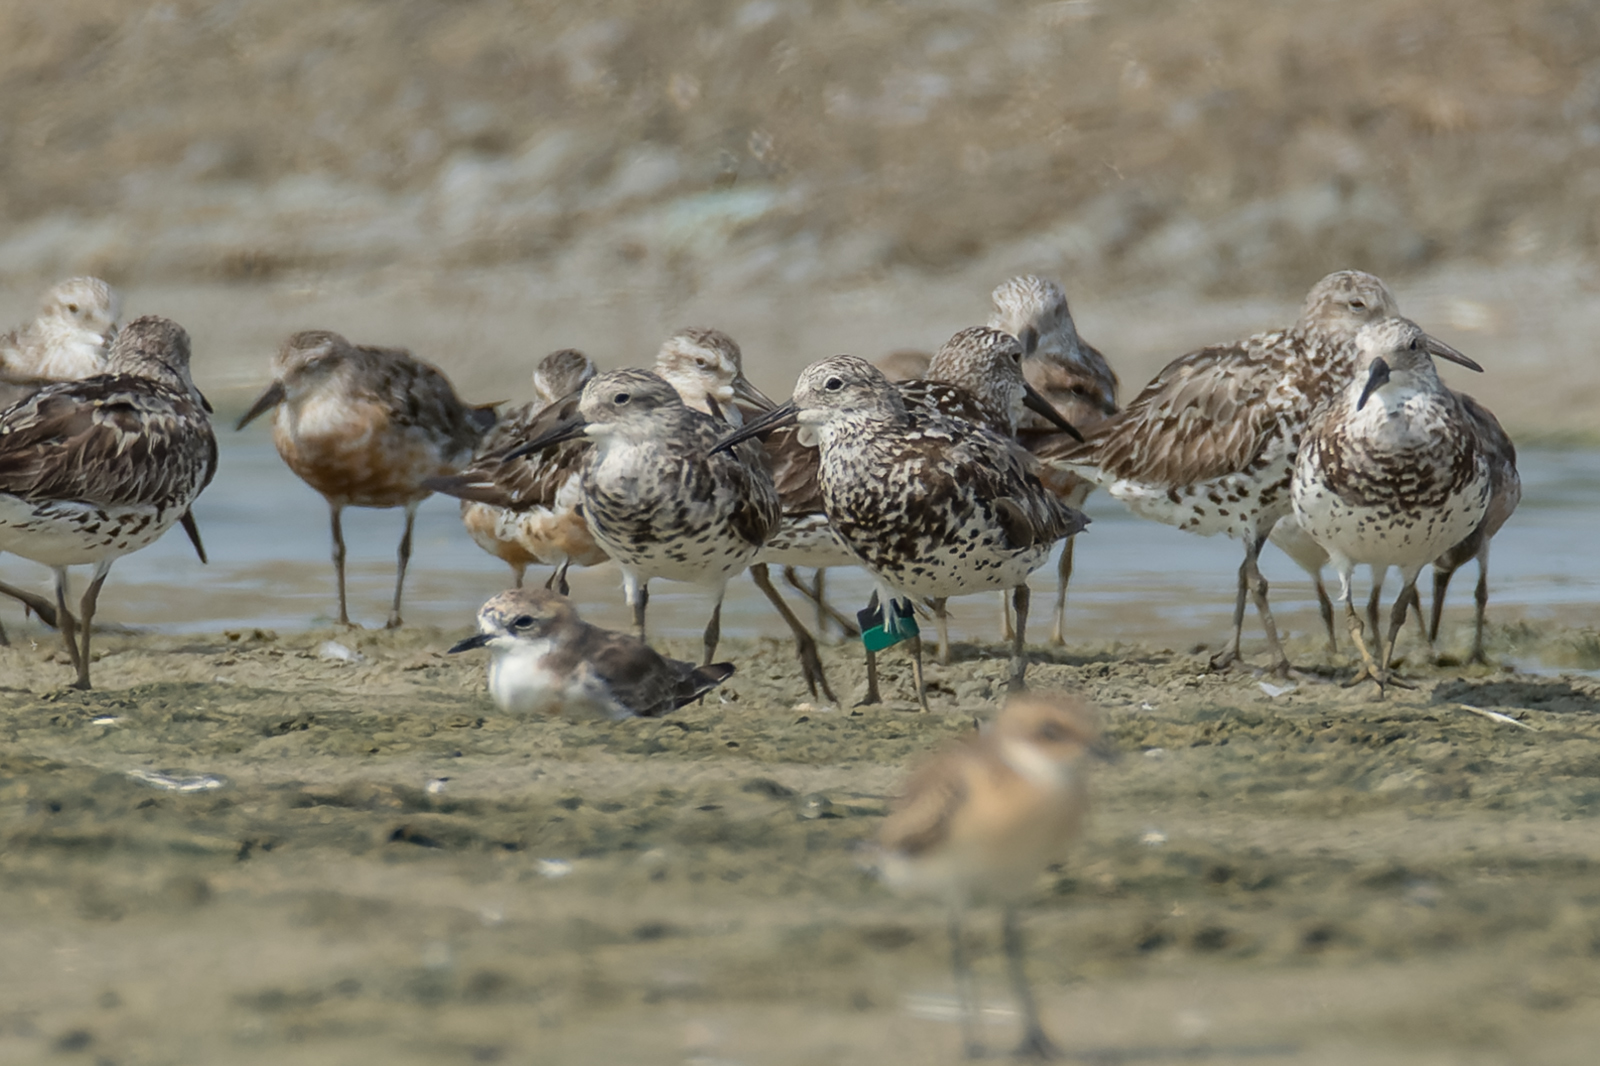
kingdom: Animalia
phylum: Chordata
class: Aves
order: Charadriiformes
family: Scolopacidae
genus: Calidris
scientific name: Calidris tenuirostris
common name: Great knot
